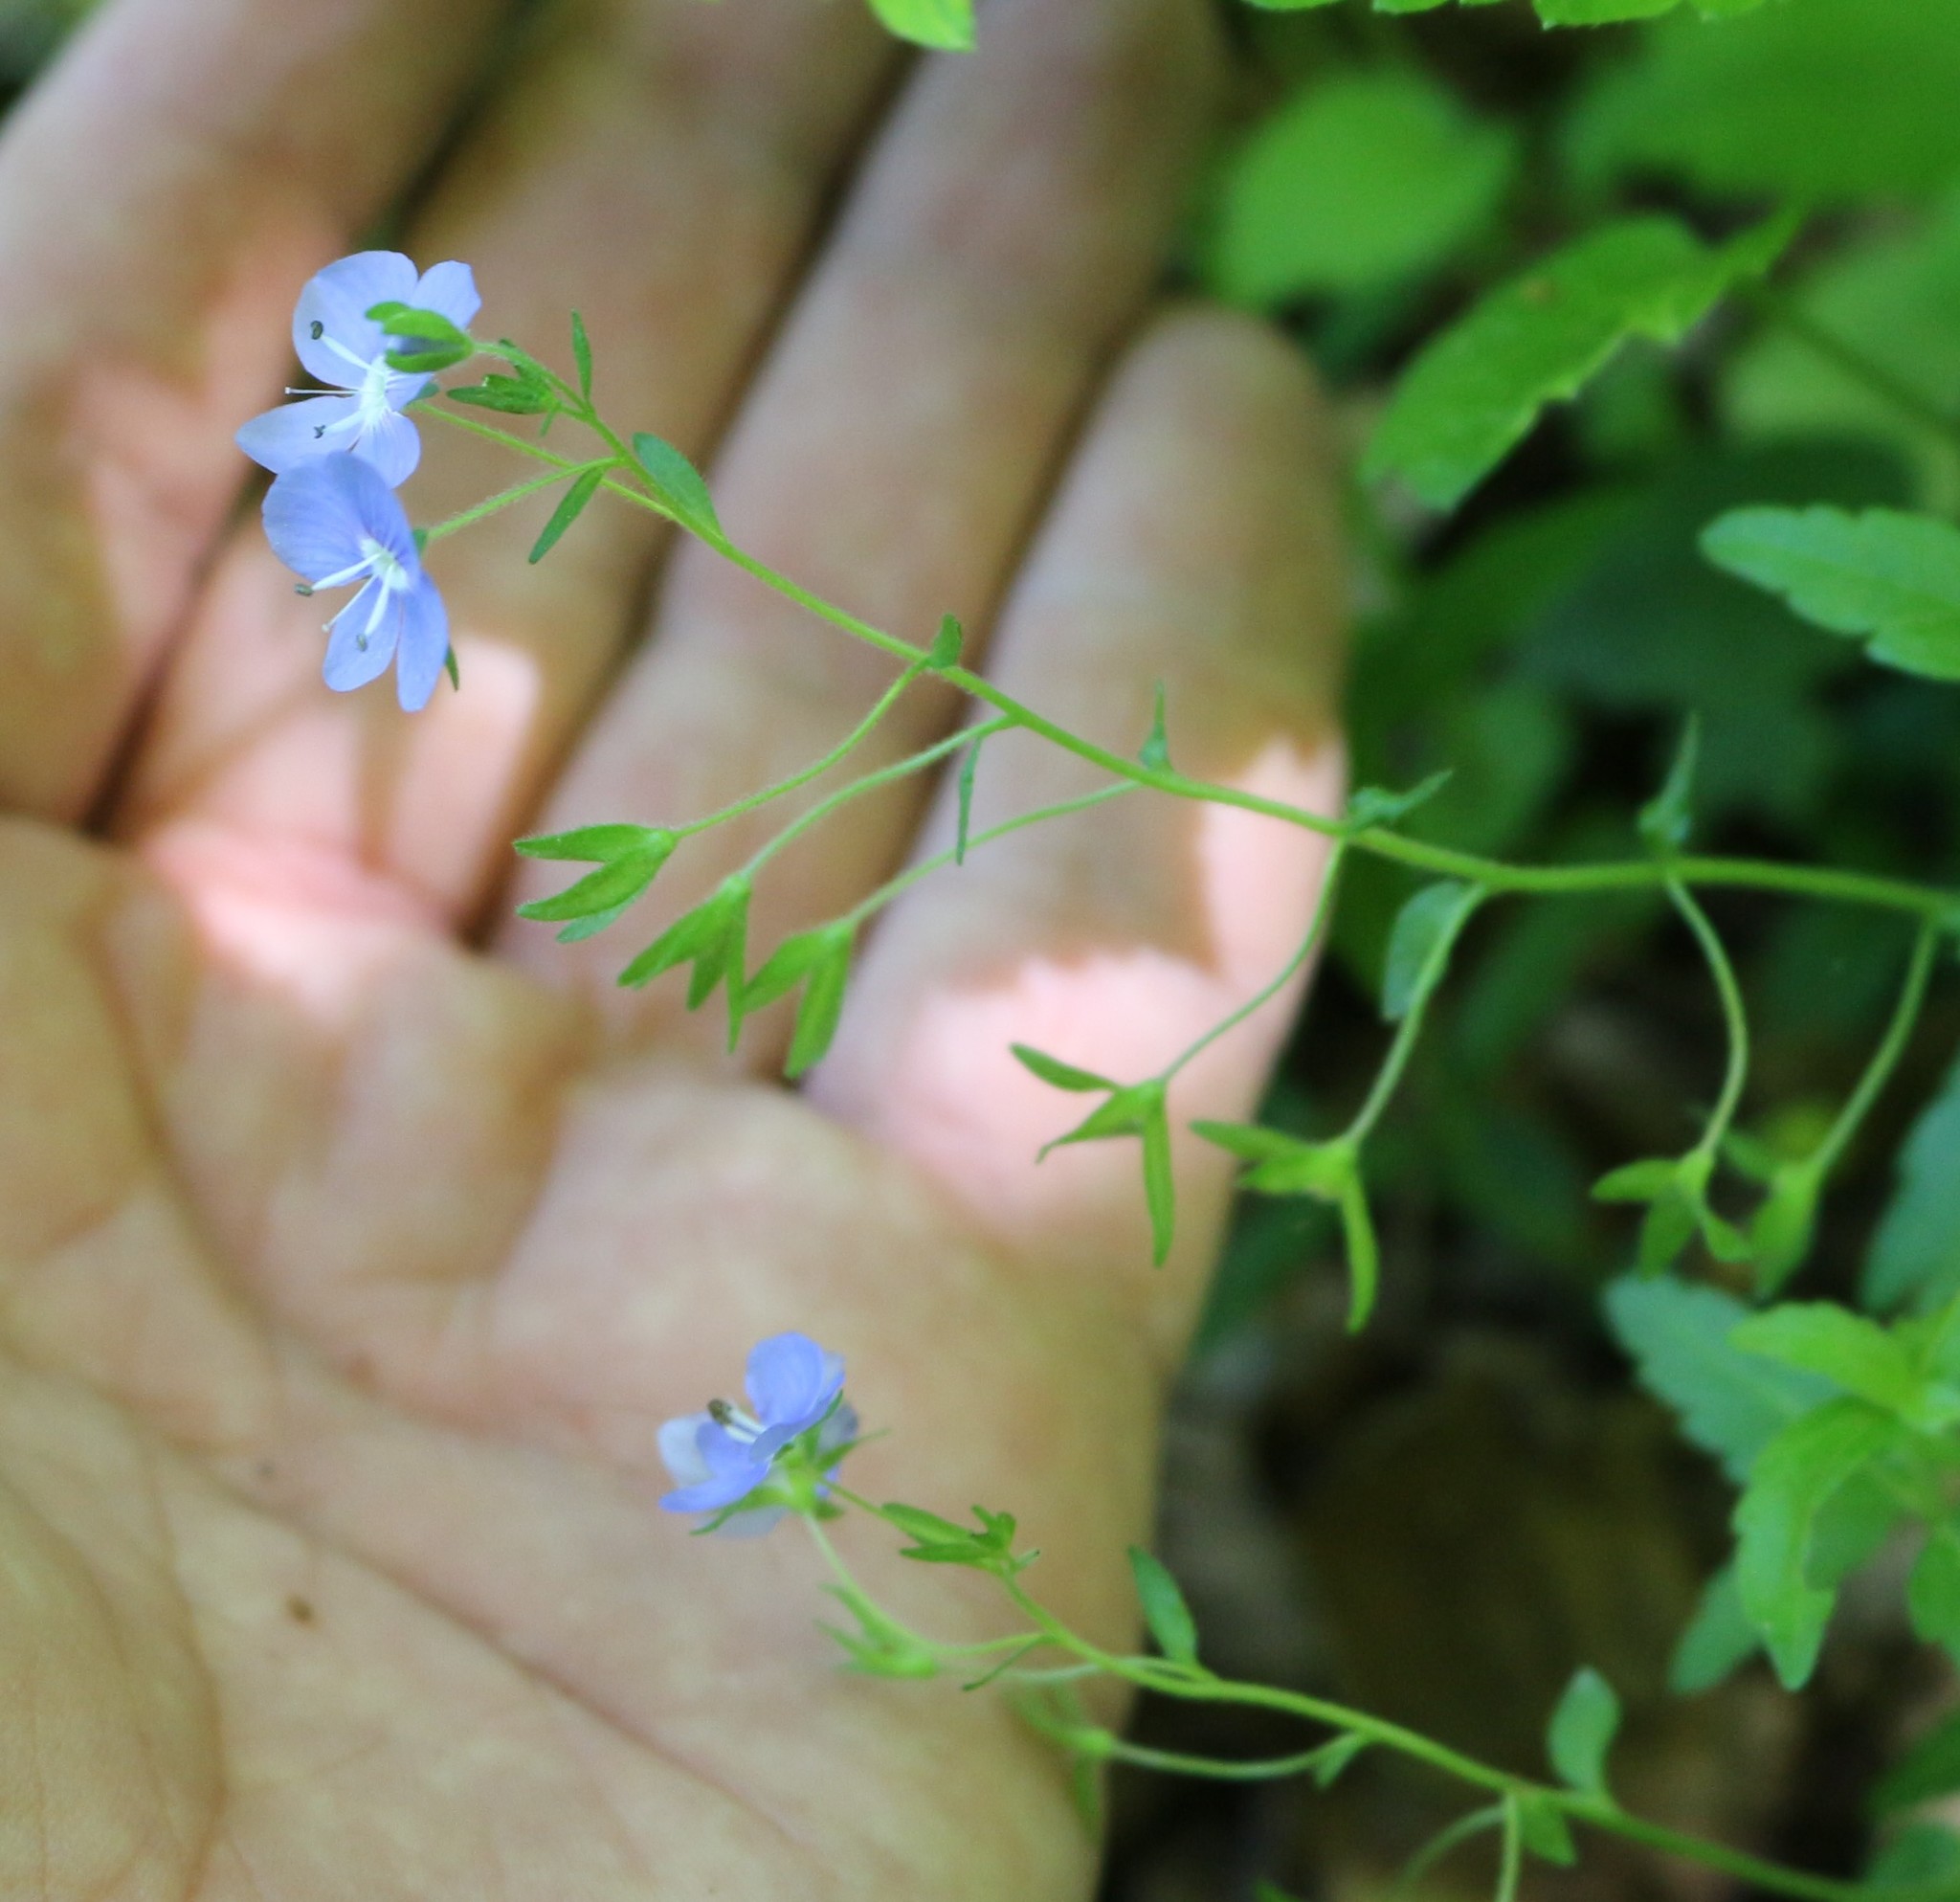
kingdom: Plantae
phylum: Tracheophyta
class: Magnoliopsida
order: Lamiales
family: Plantaginaceae
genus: Veronica
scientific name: Veronica
